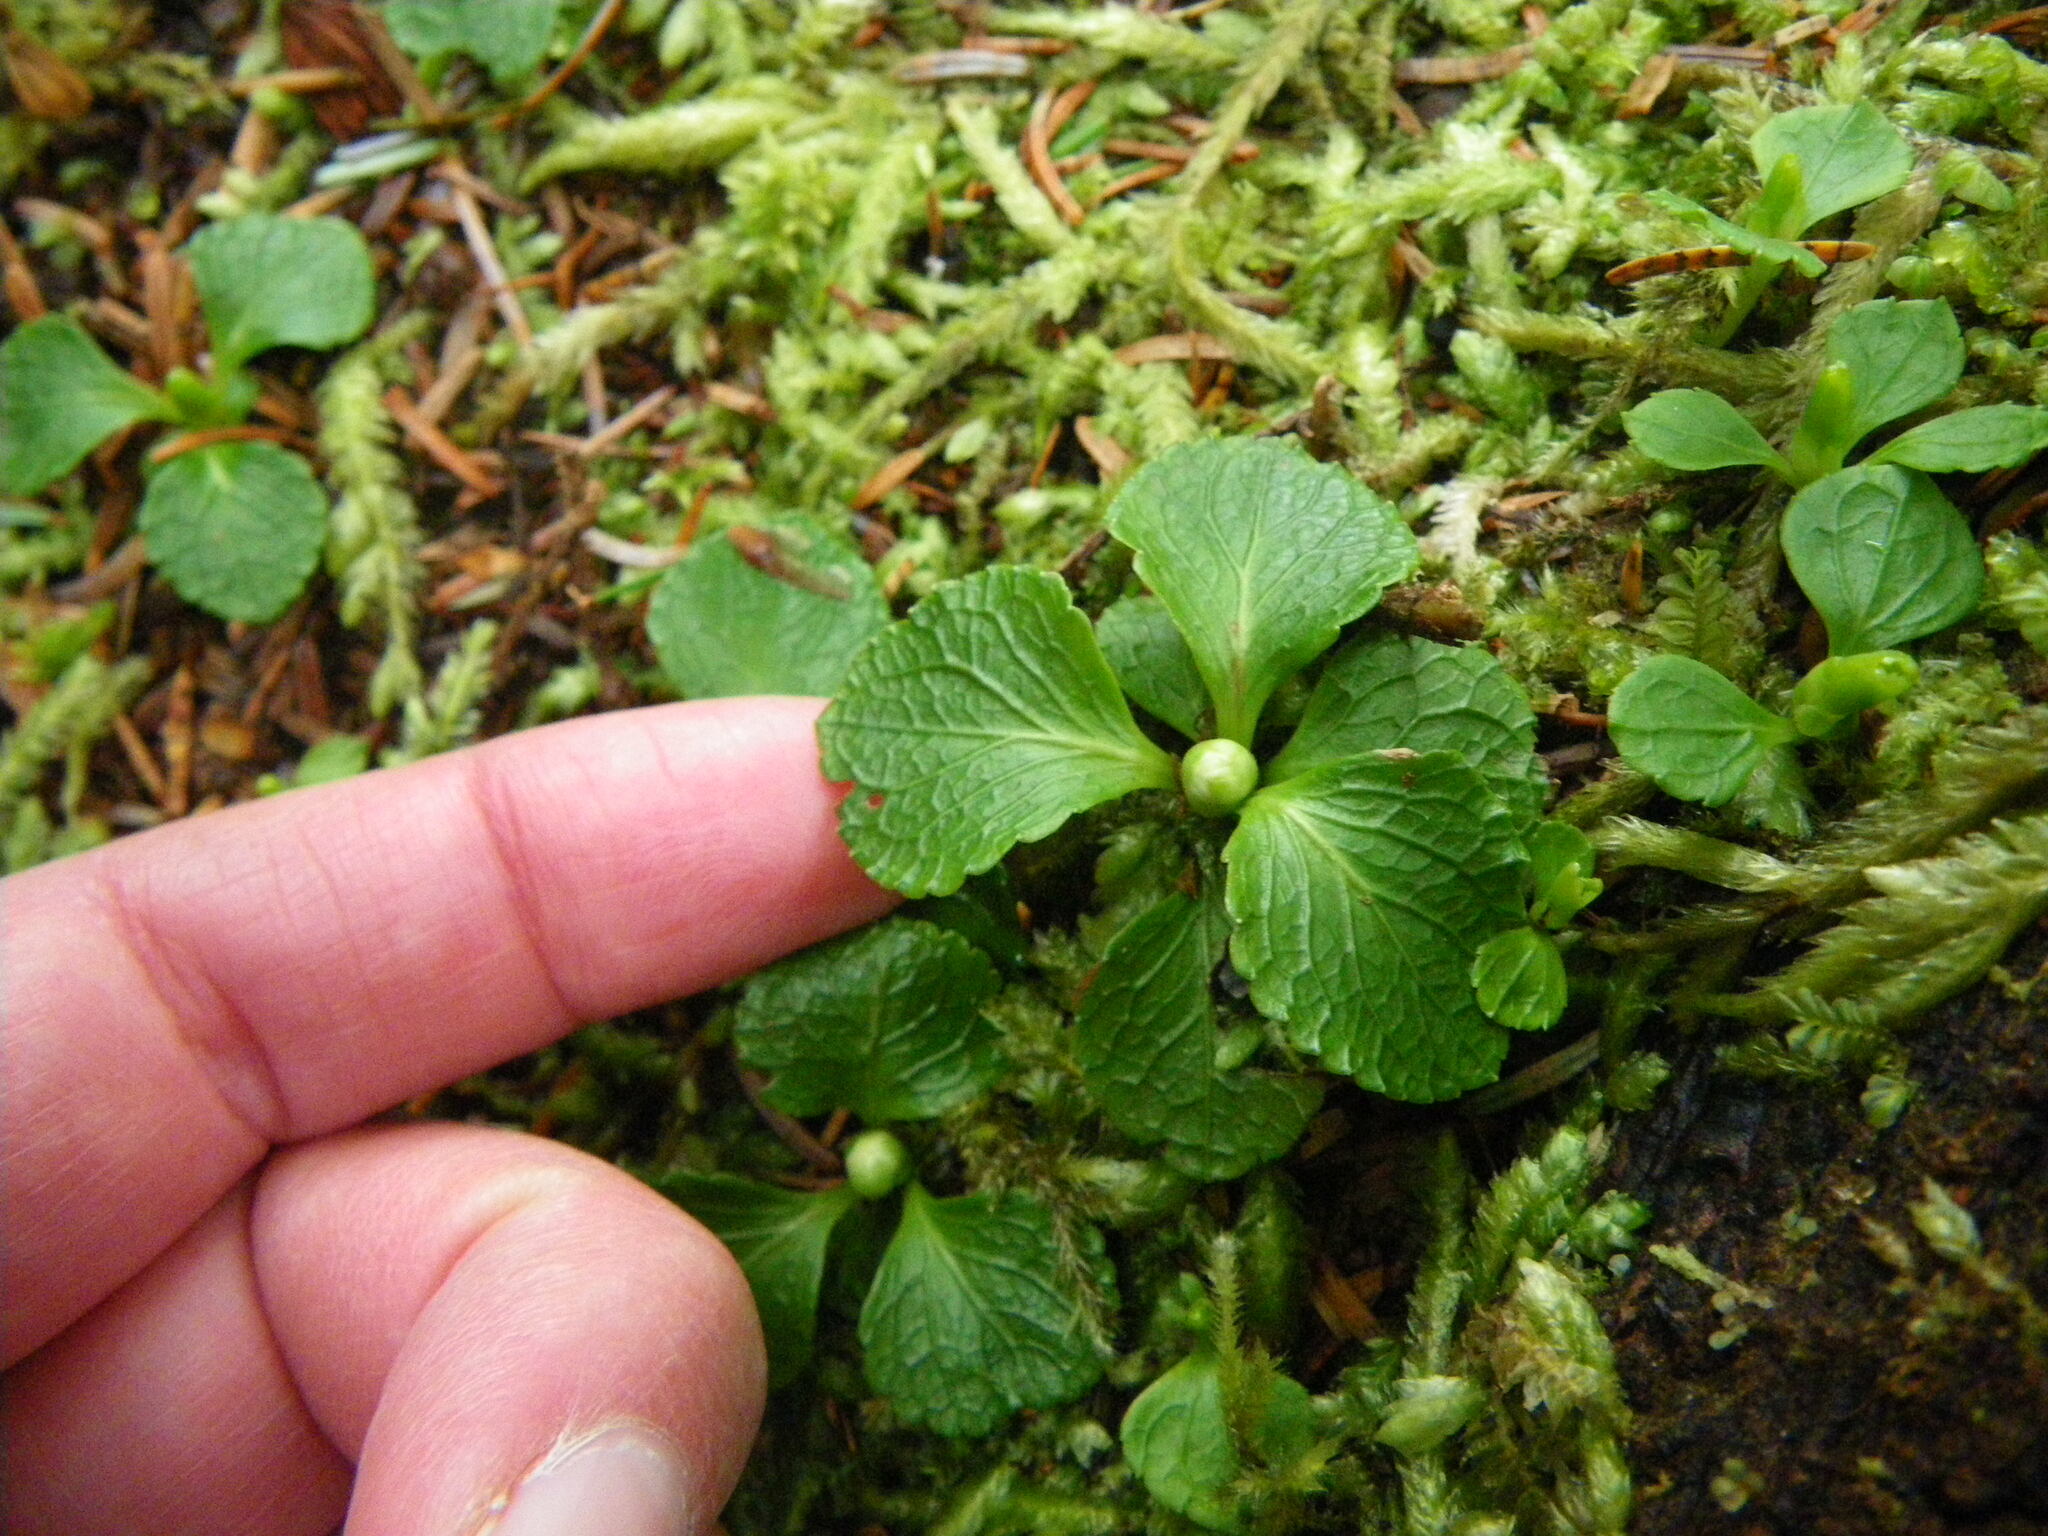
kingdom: Plantae
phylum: Tracheophyta
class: Magnoliopsida
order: Ericales
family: Ericaceae
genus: Moneses
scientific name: Moneses uniflora
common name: One-flowered wintergreen
